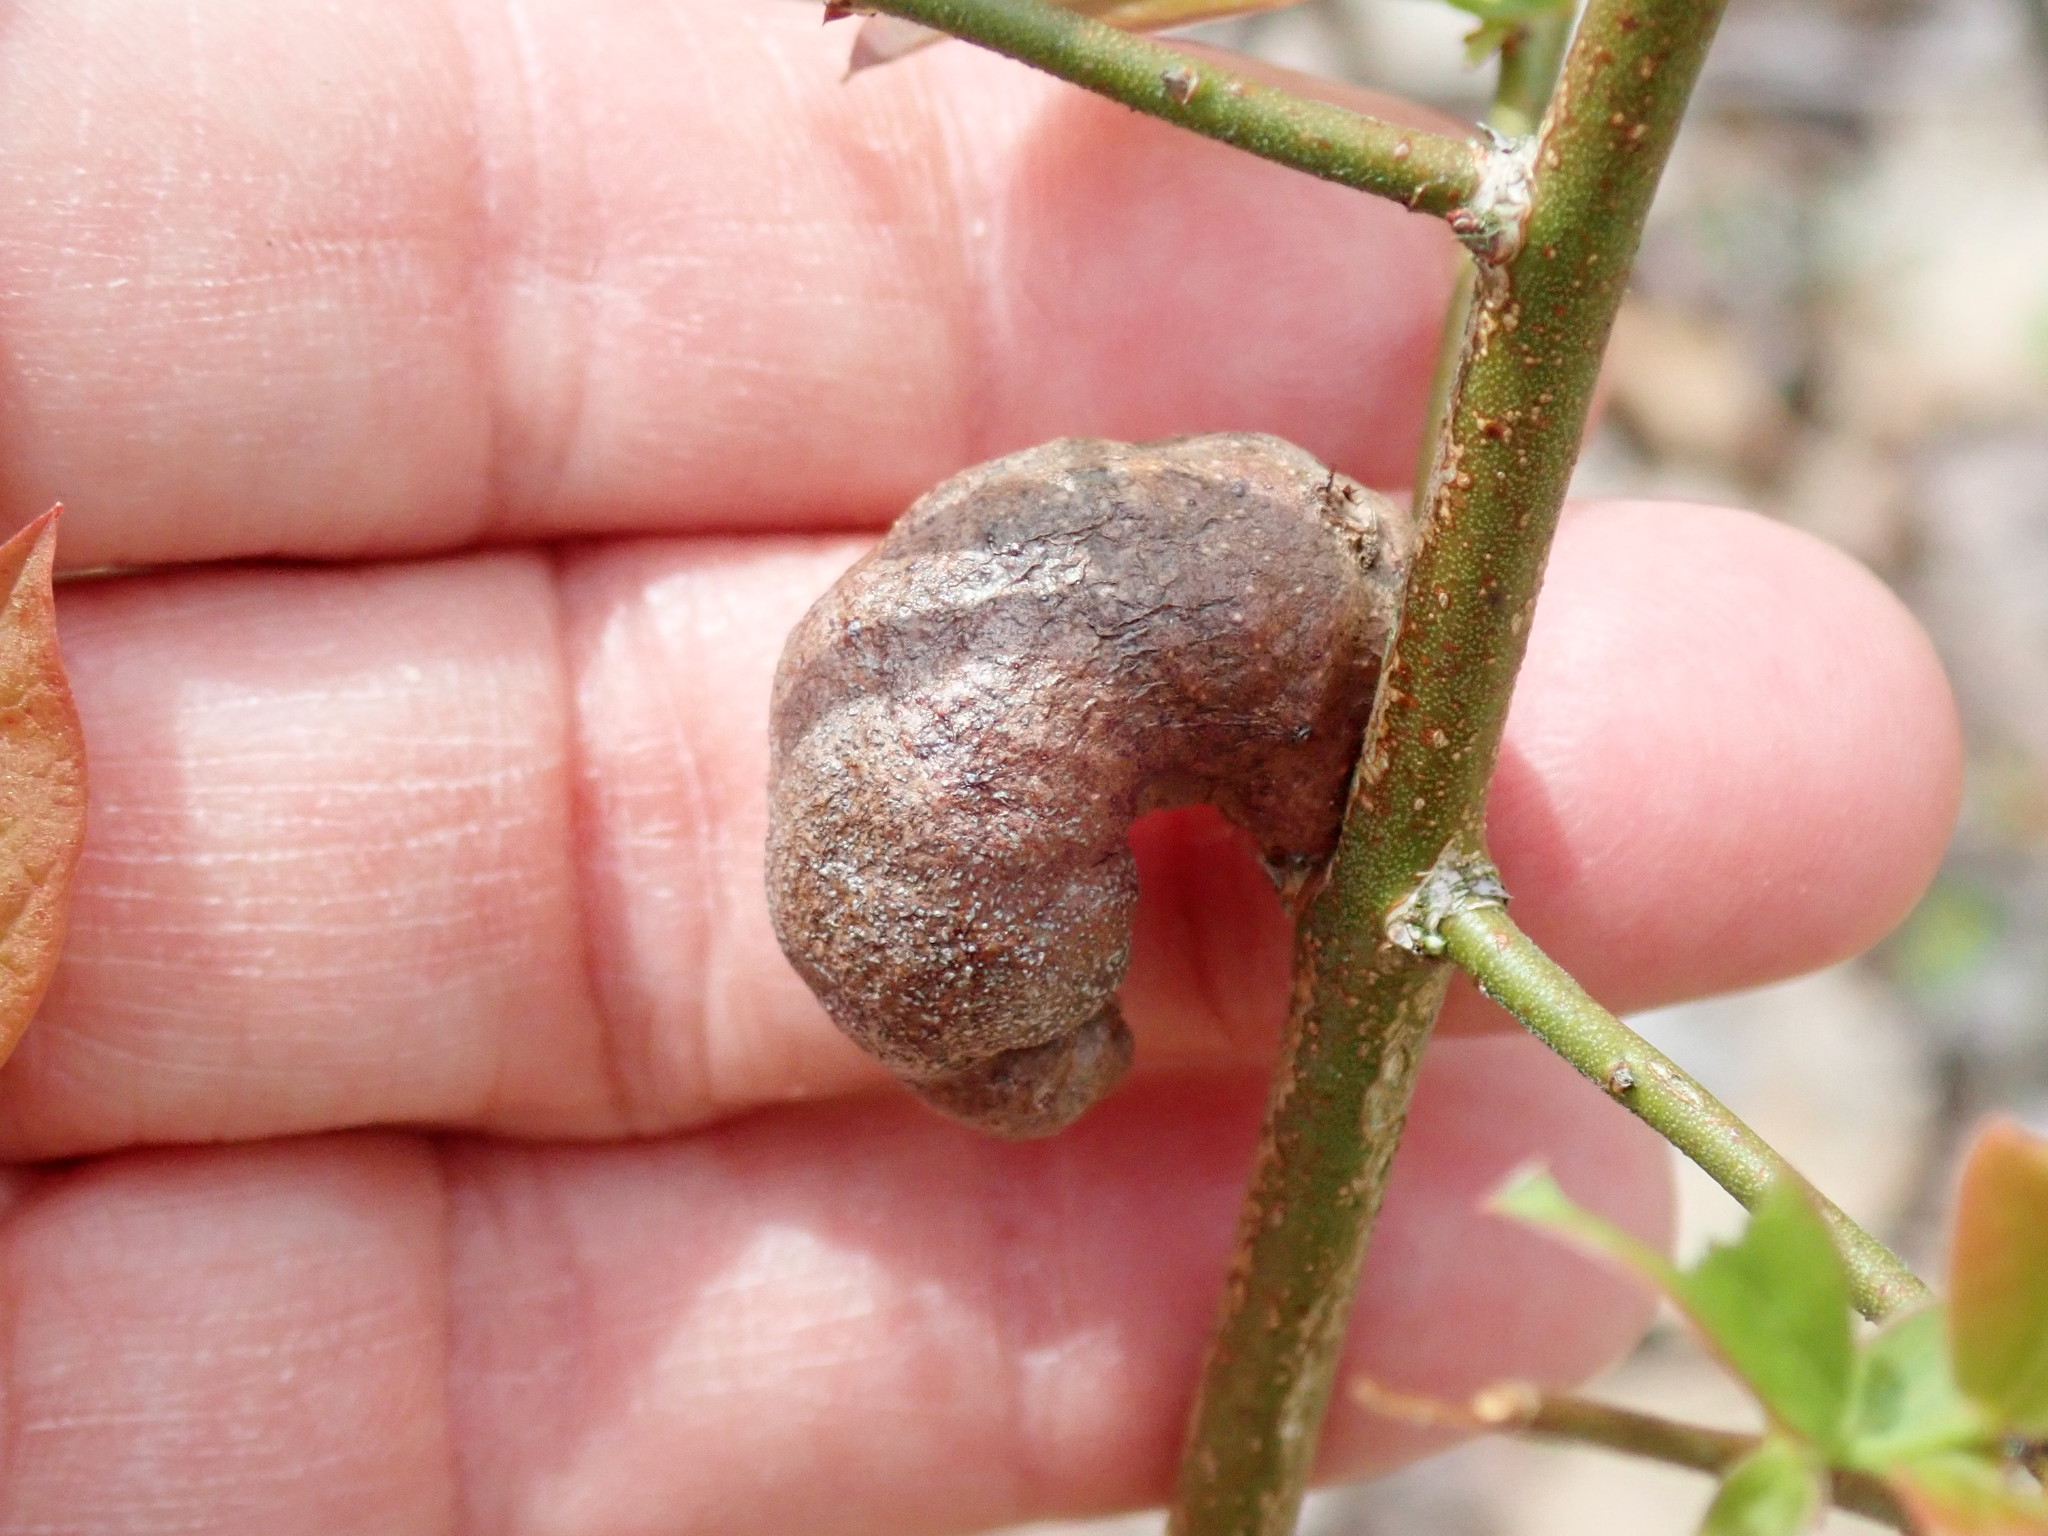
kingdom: Animalia
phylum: Arthropoda
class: Insecta
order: Hymenoptera
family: Pteromalidae
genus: Hemadas
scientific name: Hemadas nubilipennis
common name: Blueberry stem gall wasp
